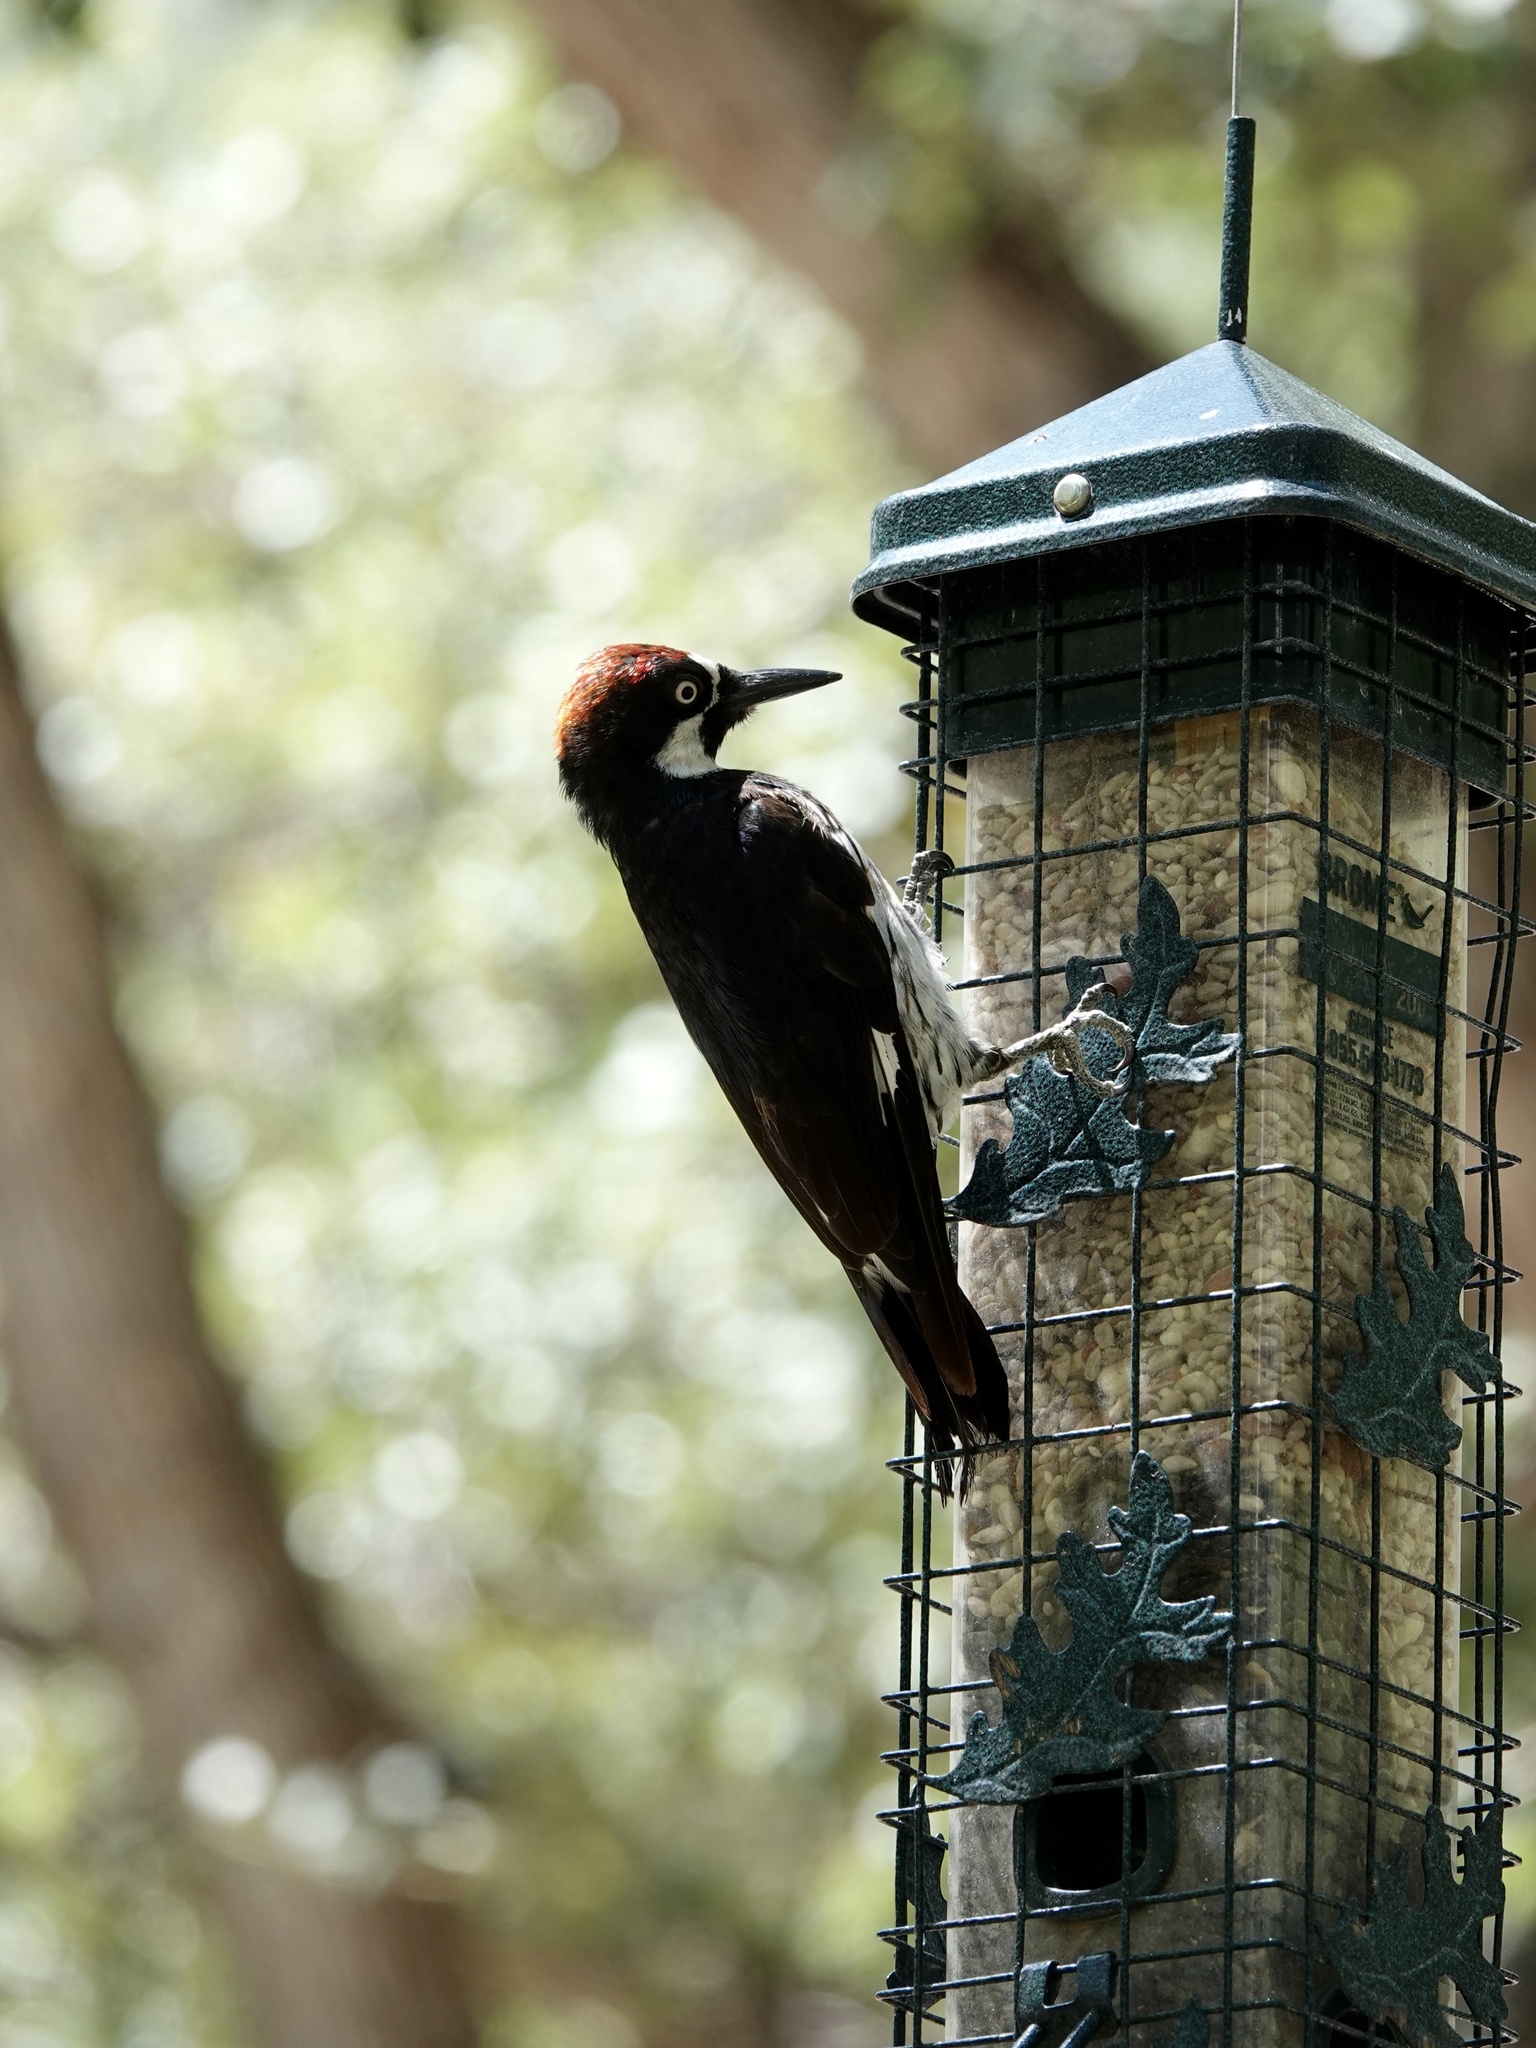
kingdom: Animalia
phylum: Chordata
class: Aves
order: Piciformes
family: Picidae
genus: Melanerpes
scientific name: Melanerpes formicivorus
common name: Acorn woodpecker
